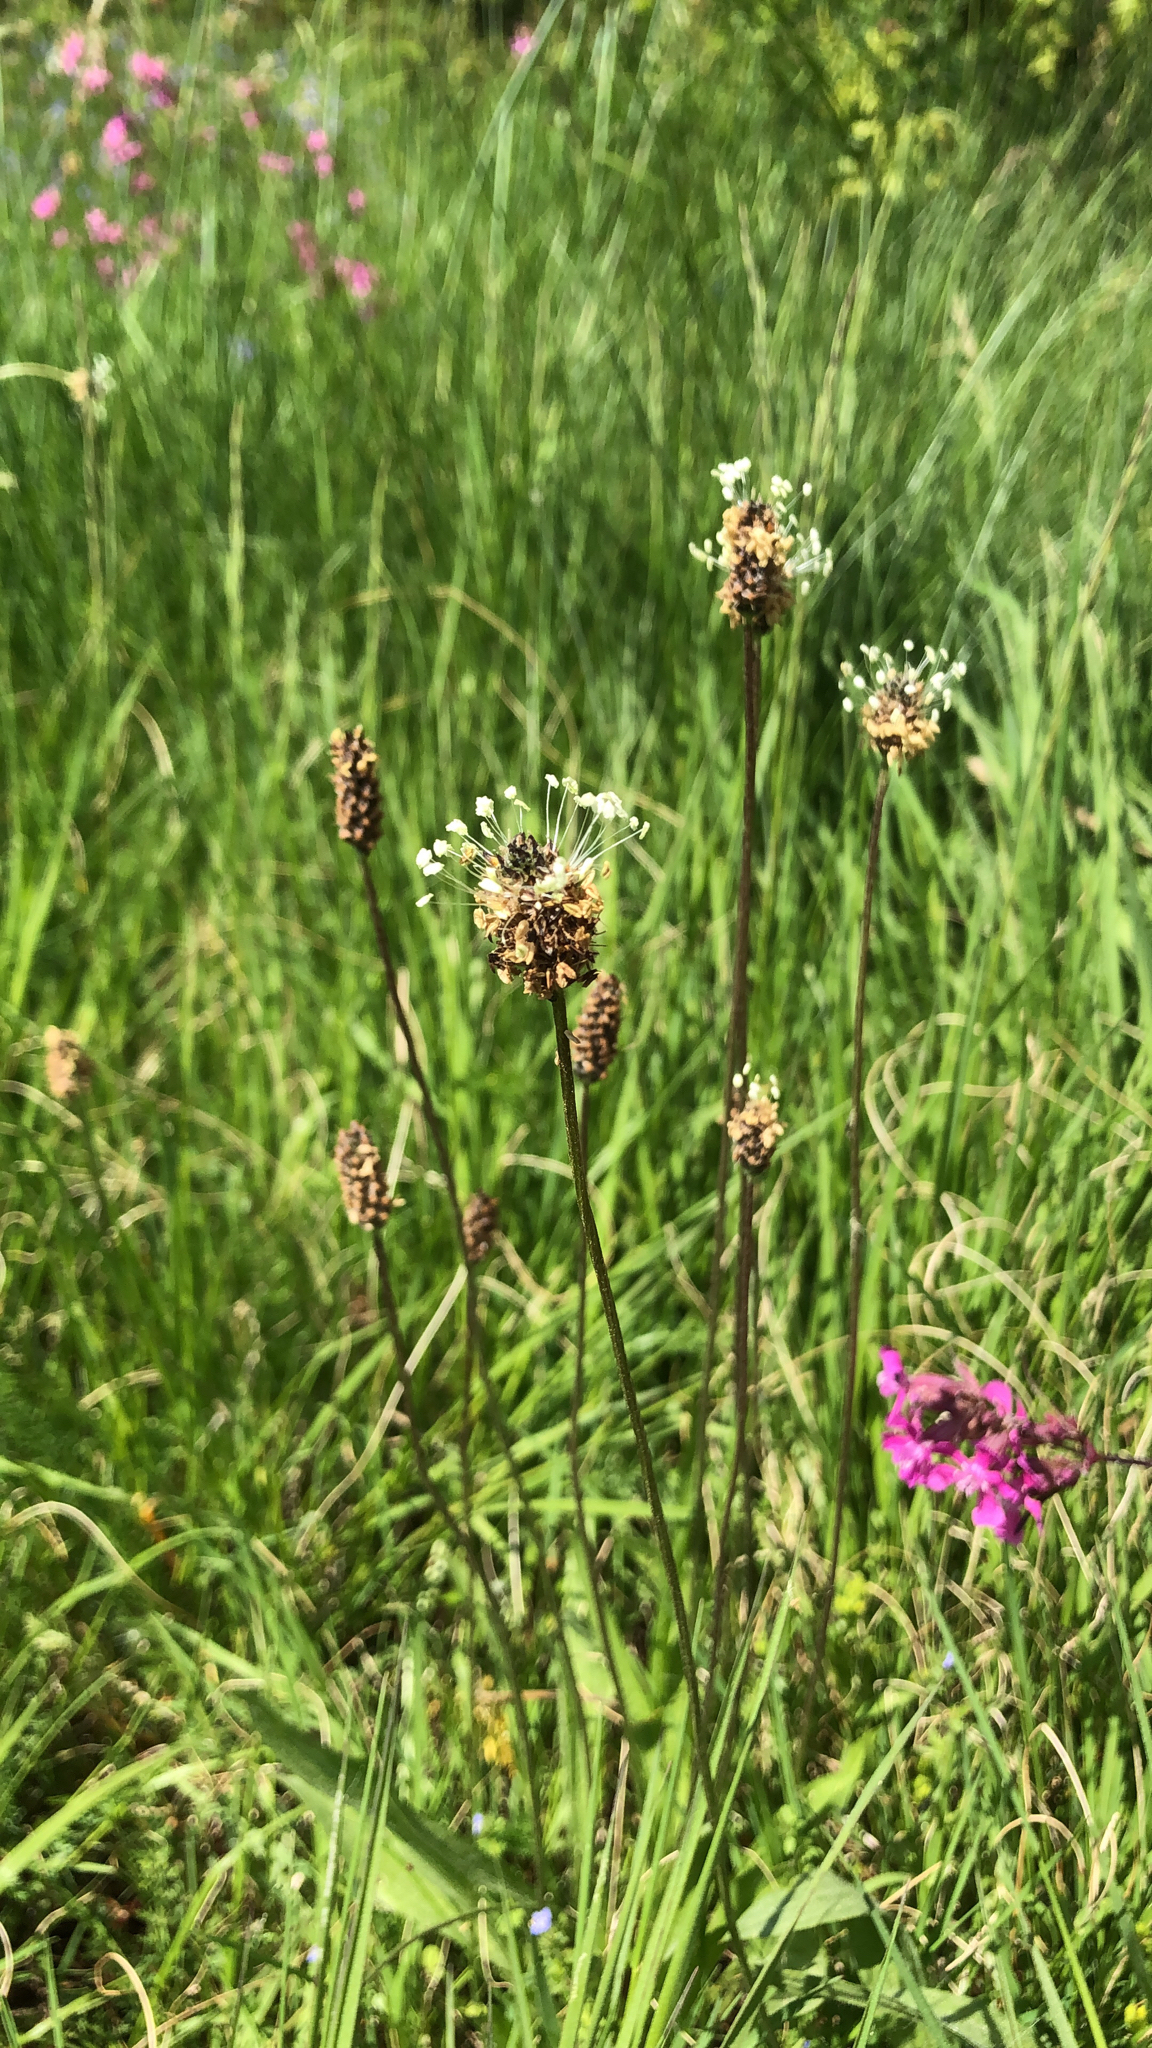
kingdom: Plantae
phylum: Tracheophyta
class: Magnoliopsida
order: Lamiales
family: Plantaginaceae
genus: Plantago
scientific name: Plantago lanceolata
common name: Ribwort plantain
